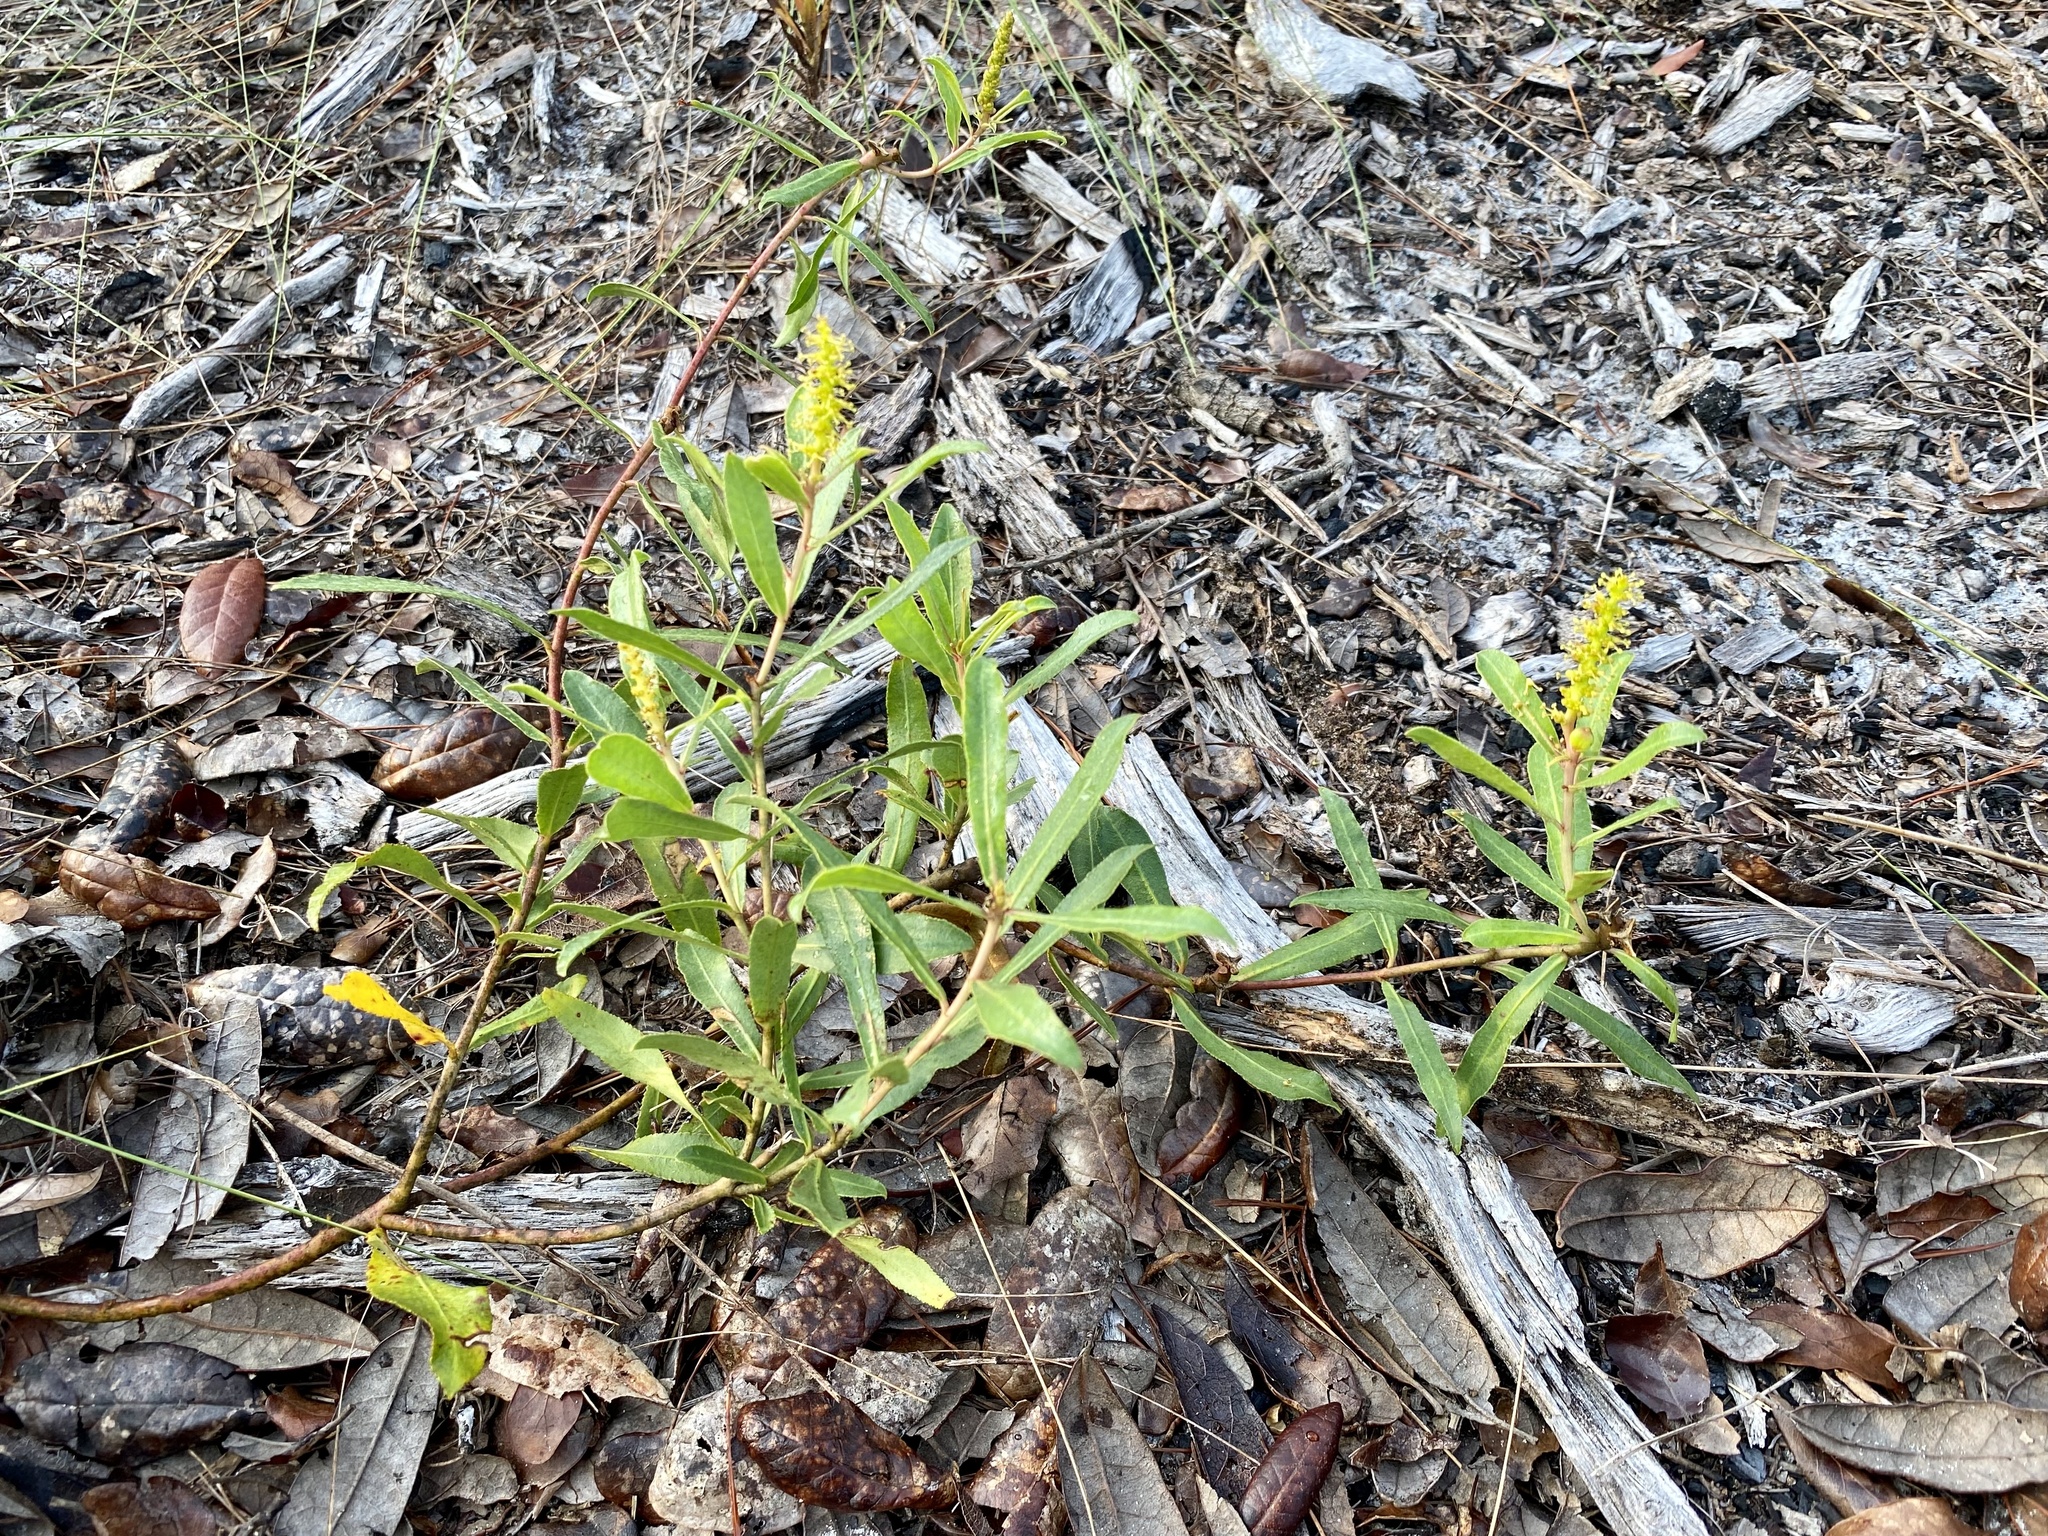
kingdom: Plantae
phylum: Tracheophyta
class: Magnoliopsida
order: Malpighiales
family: Euphorbiaceae
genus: Stillingia
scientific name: Stillingia sylvatica
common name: Queen's-delight
